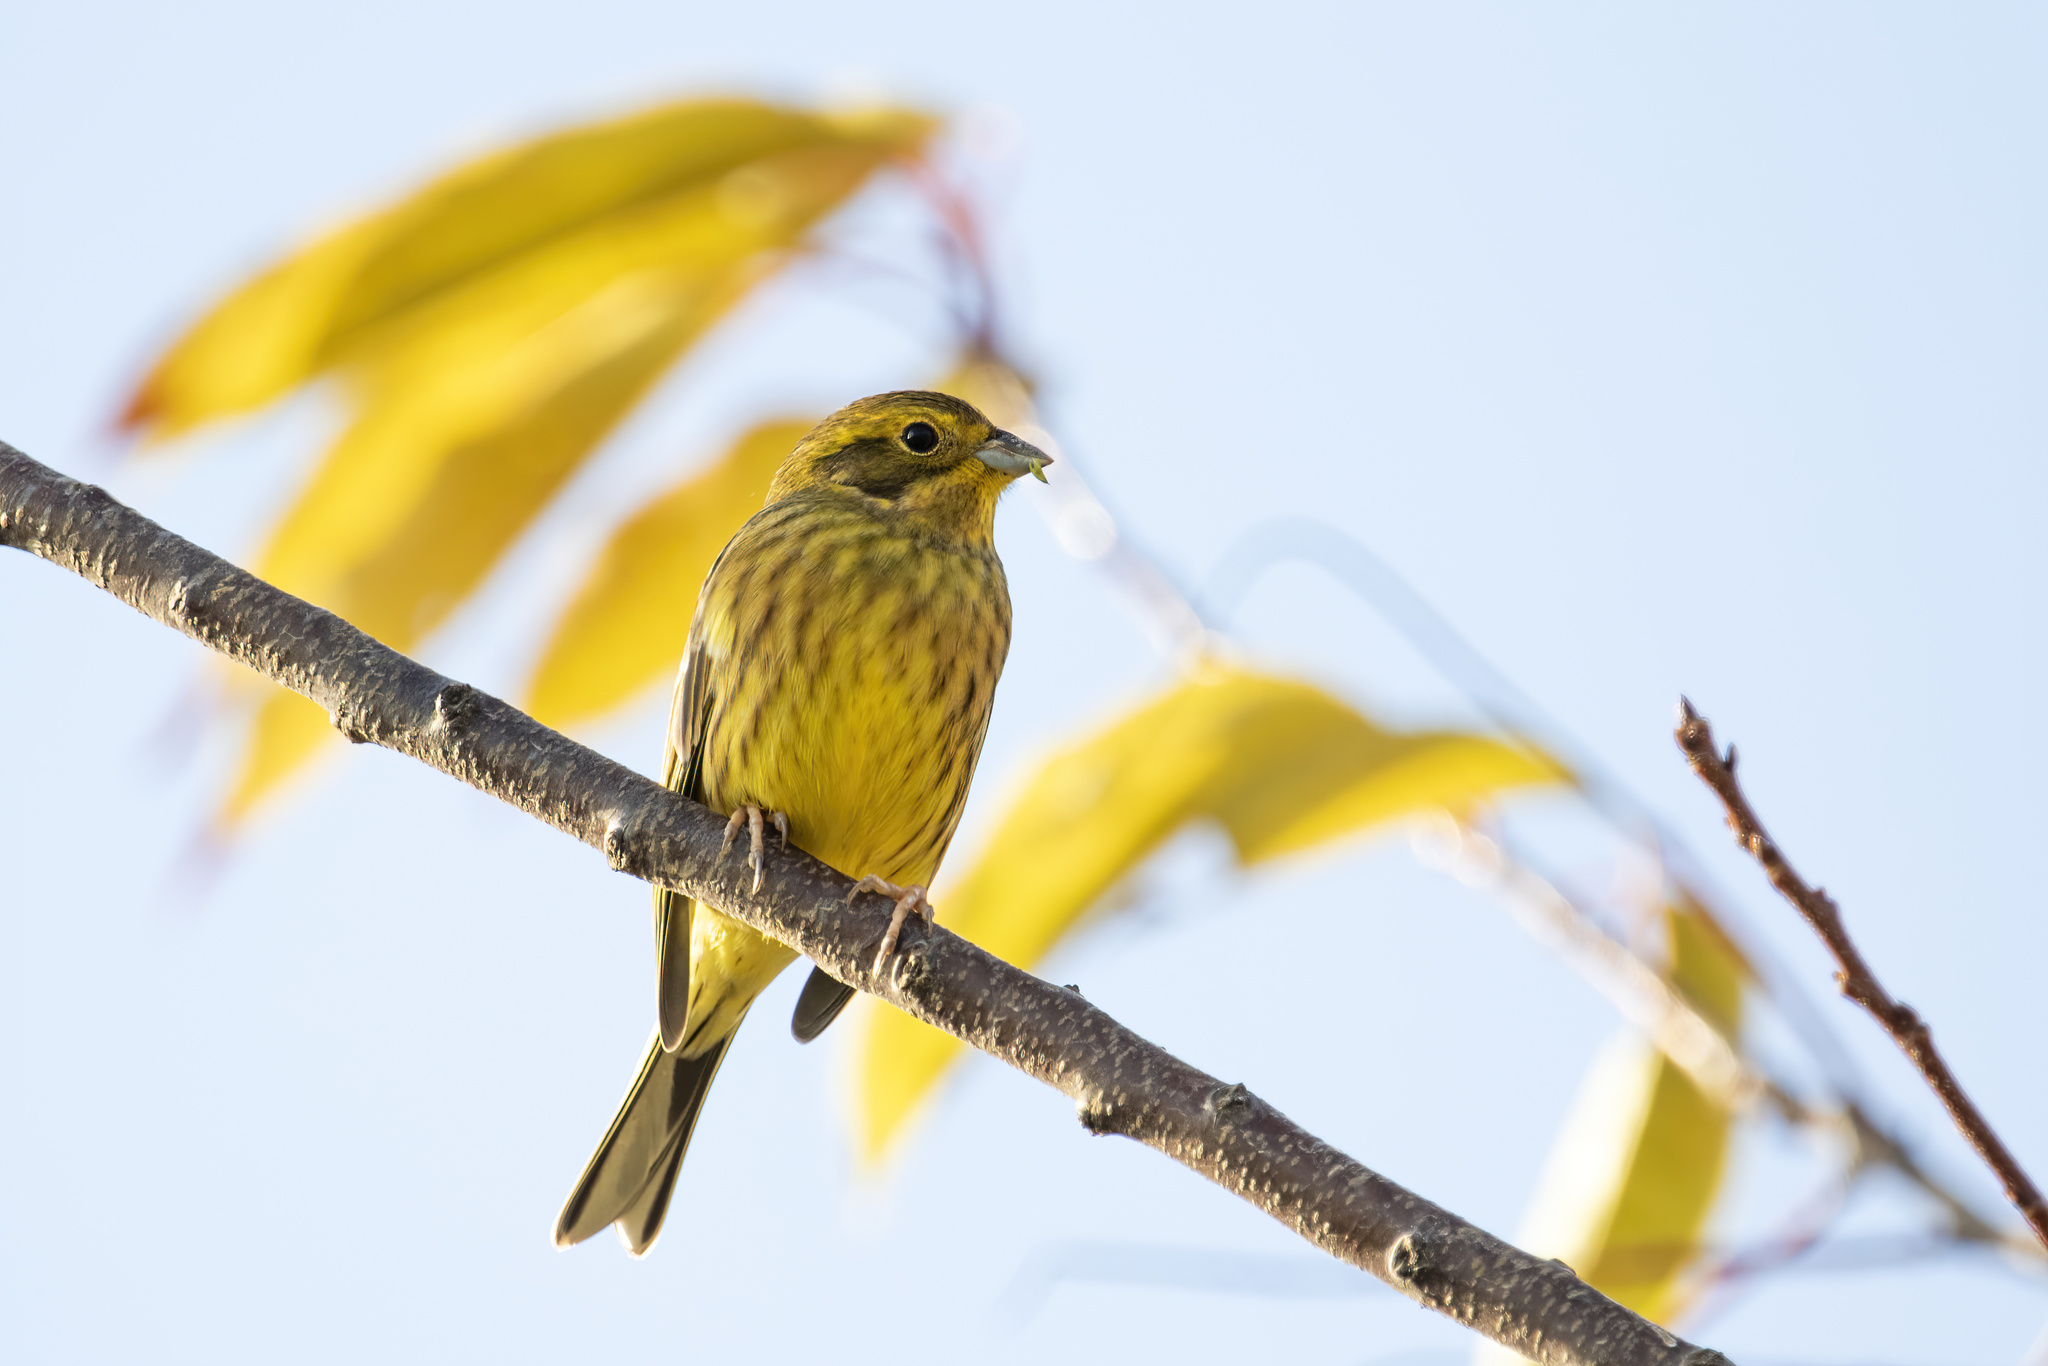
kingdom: Animalia
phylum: Chordata
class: Aves
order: Passeriformes
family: Emberizidae
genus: Emberiza
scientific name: Emberiza citrinella
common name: Yellowhammer
